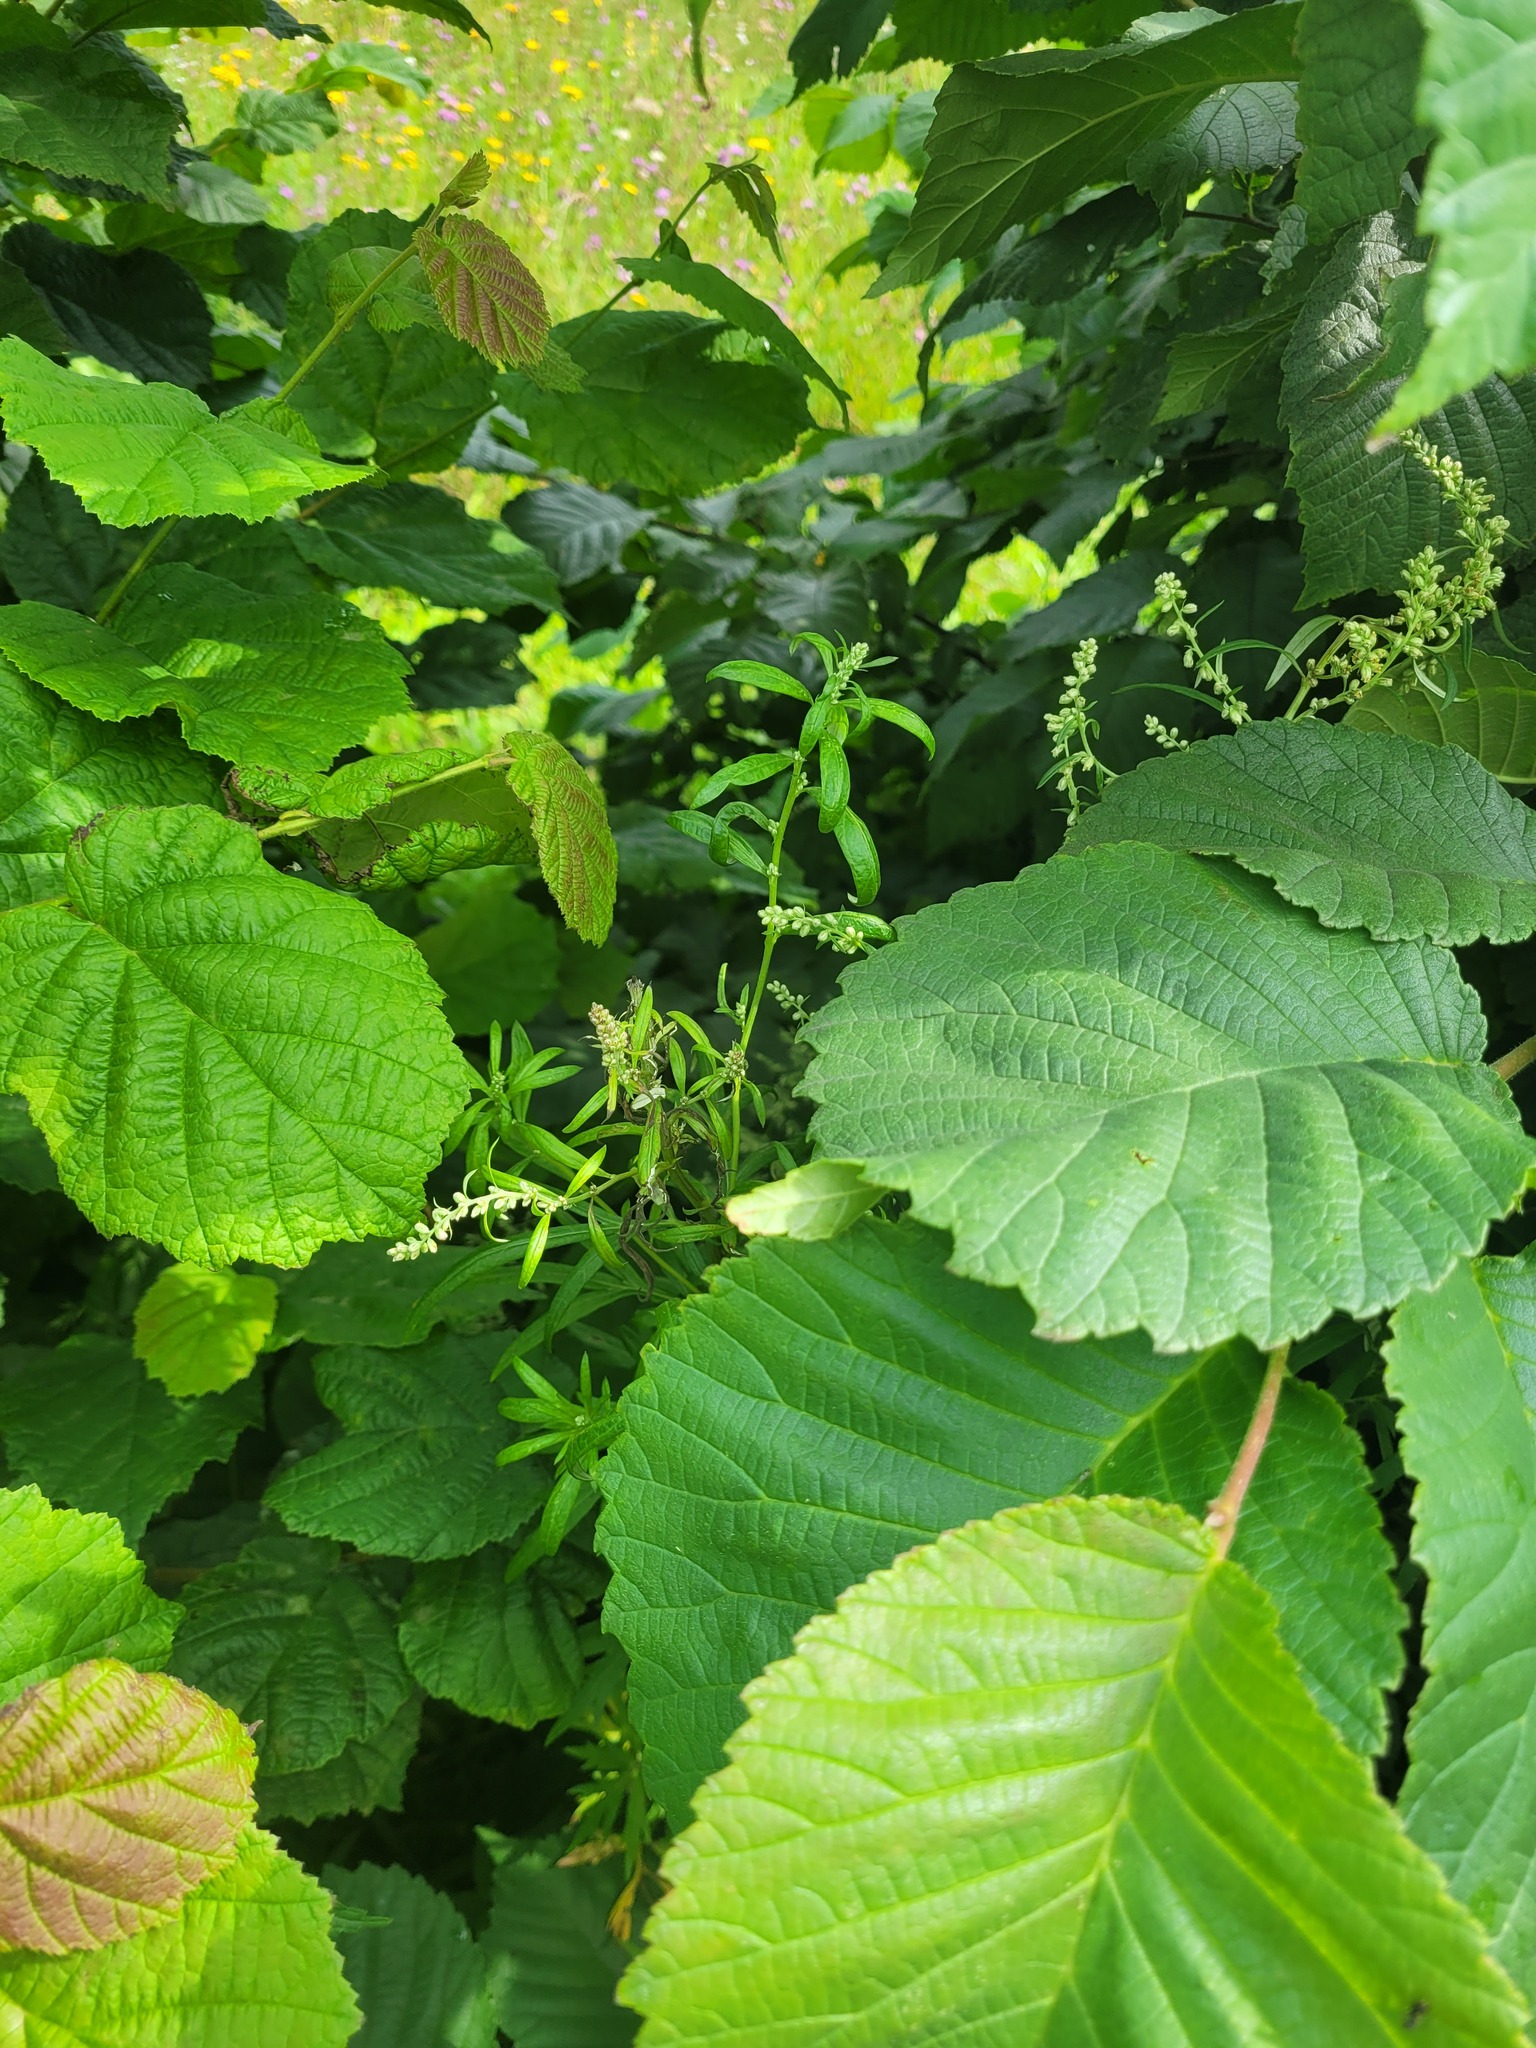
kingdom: Plantae
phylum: Tracheophyta
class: Magnoliopsida
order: Asterales
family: Asteraceae
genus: Artemisia
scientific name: Artemisia vulgaris
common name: Mugwort
